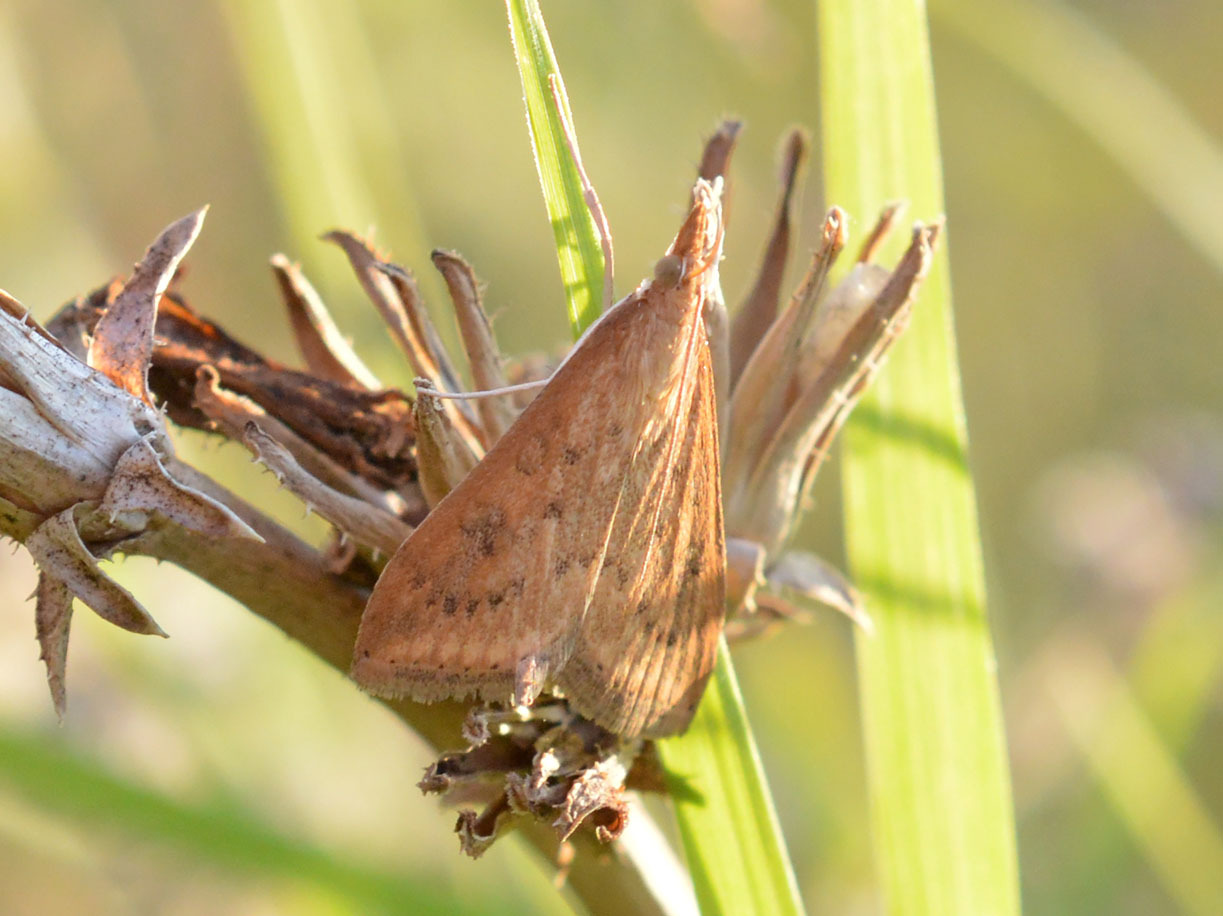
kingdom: Animalia
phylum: Arthropoda
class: Insecta
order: Lepidoptera
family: Crambidae
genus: Udea
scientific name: Udea ferrugalis
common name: Rusty dot
